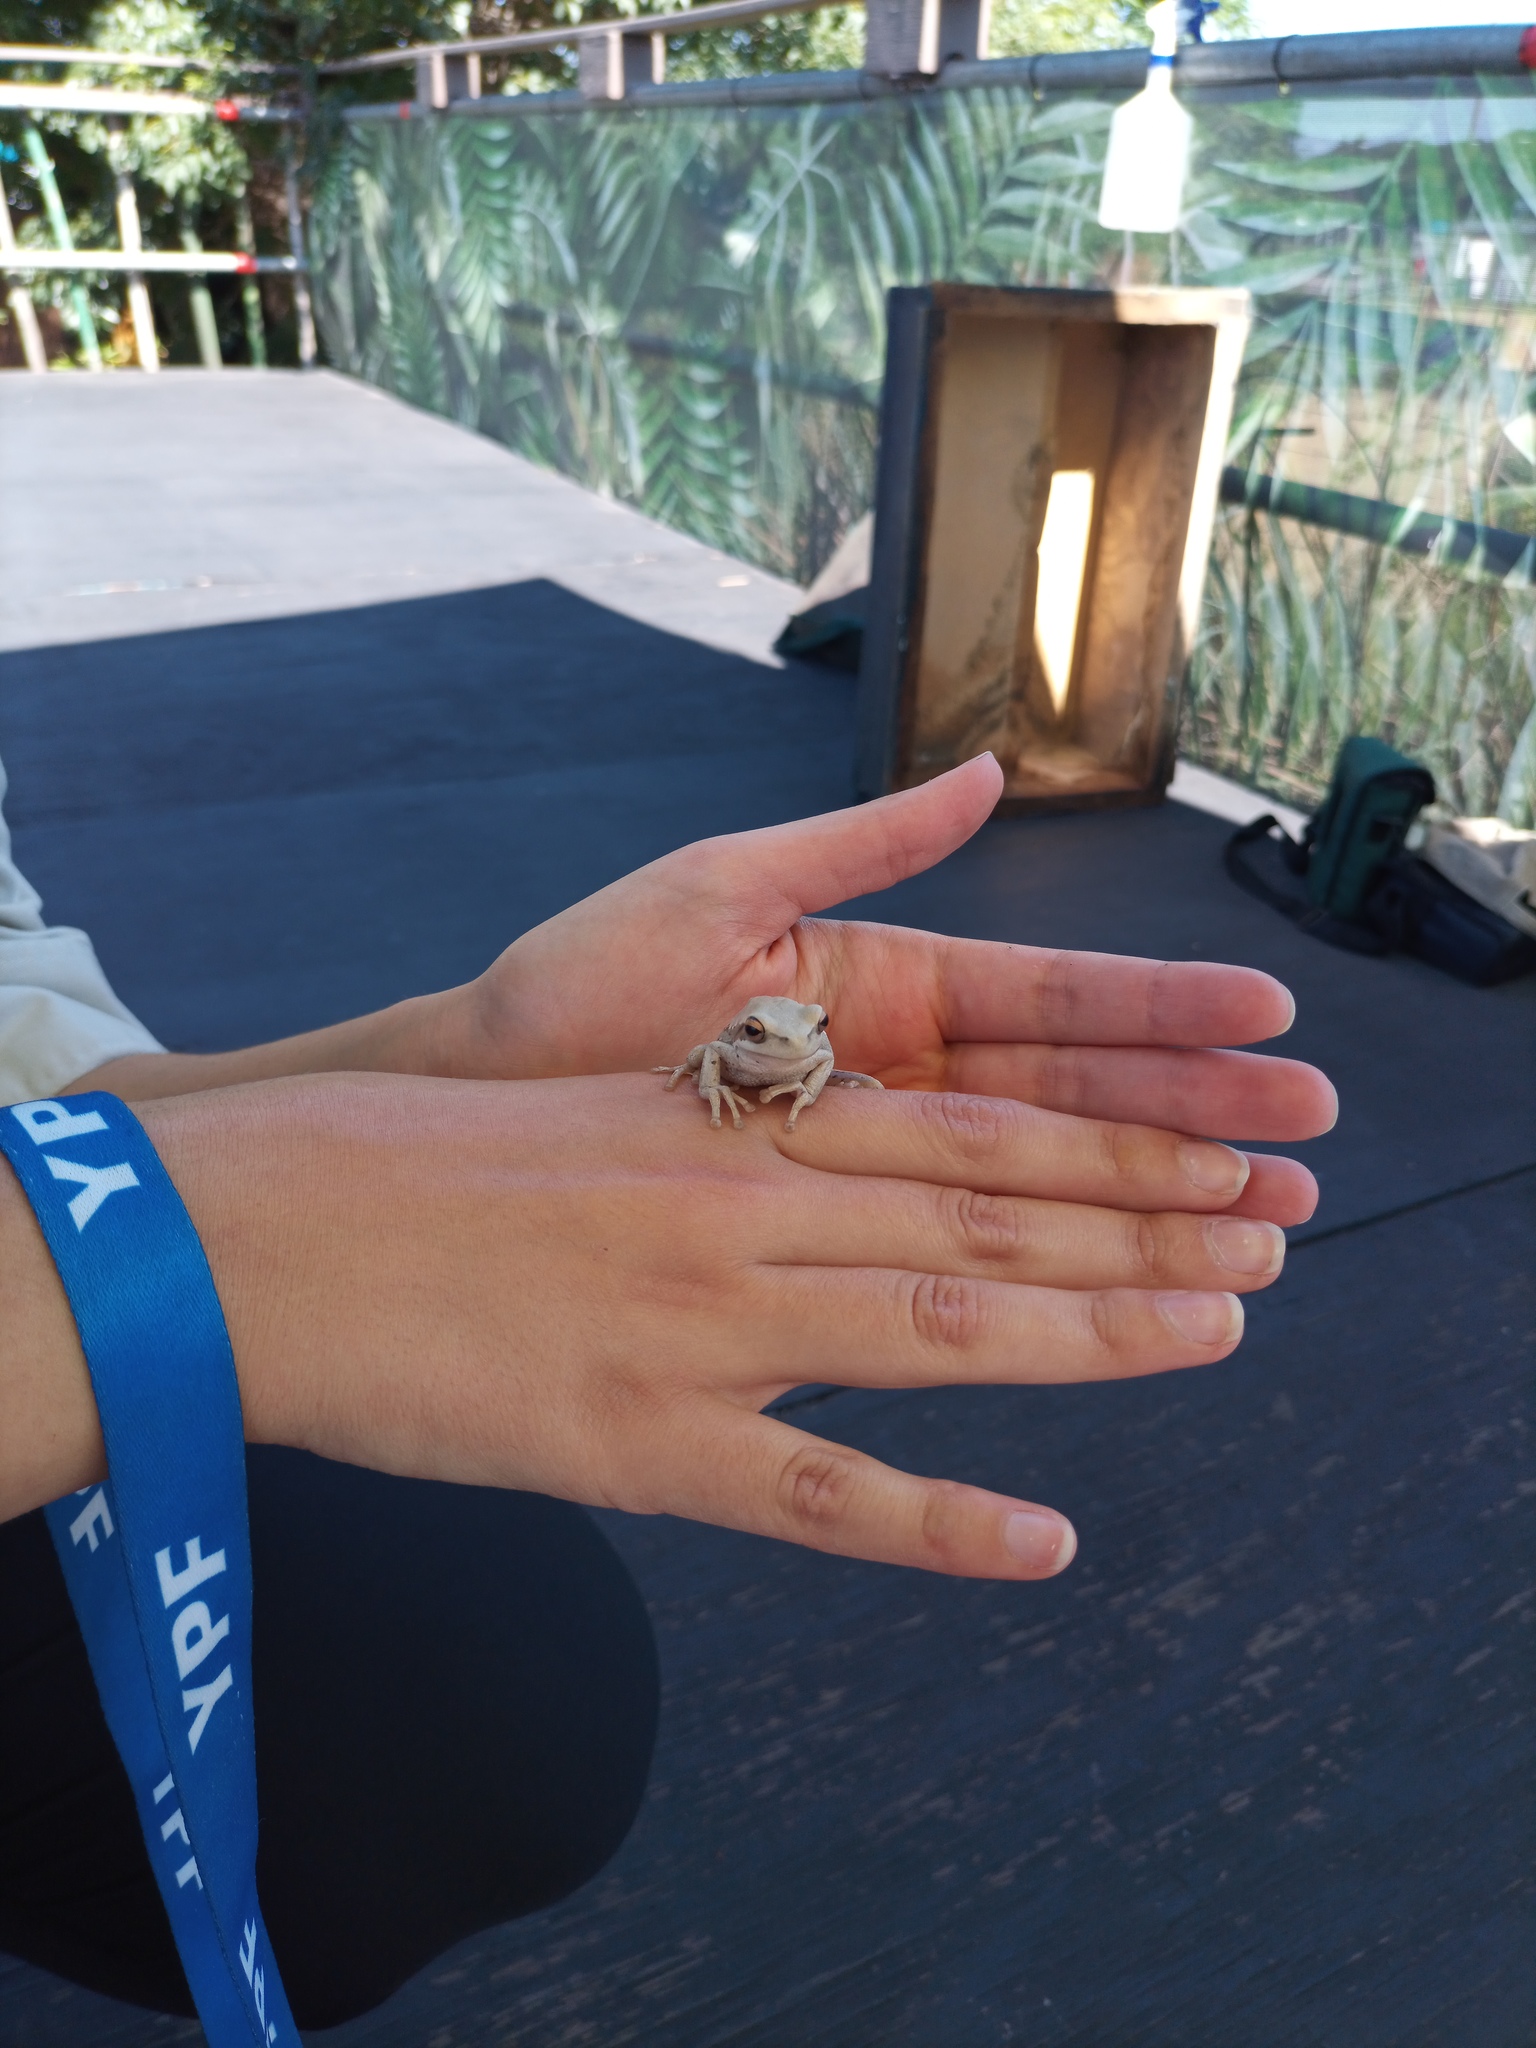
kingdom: Animalia
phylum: Chordata
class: Amphibia
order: Anura
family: Hylidae
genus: Boana
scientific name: Boana pulchella
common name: Montevideo treefrog
